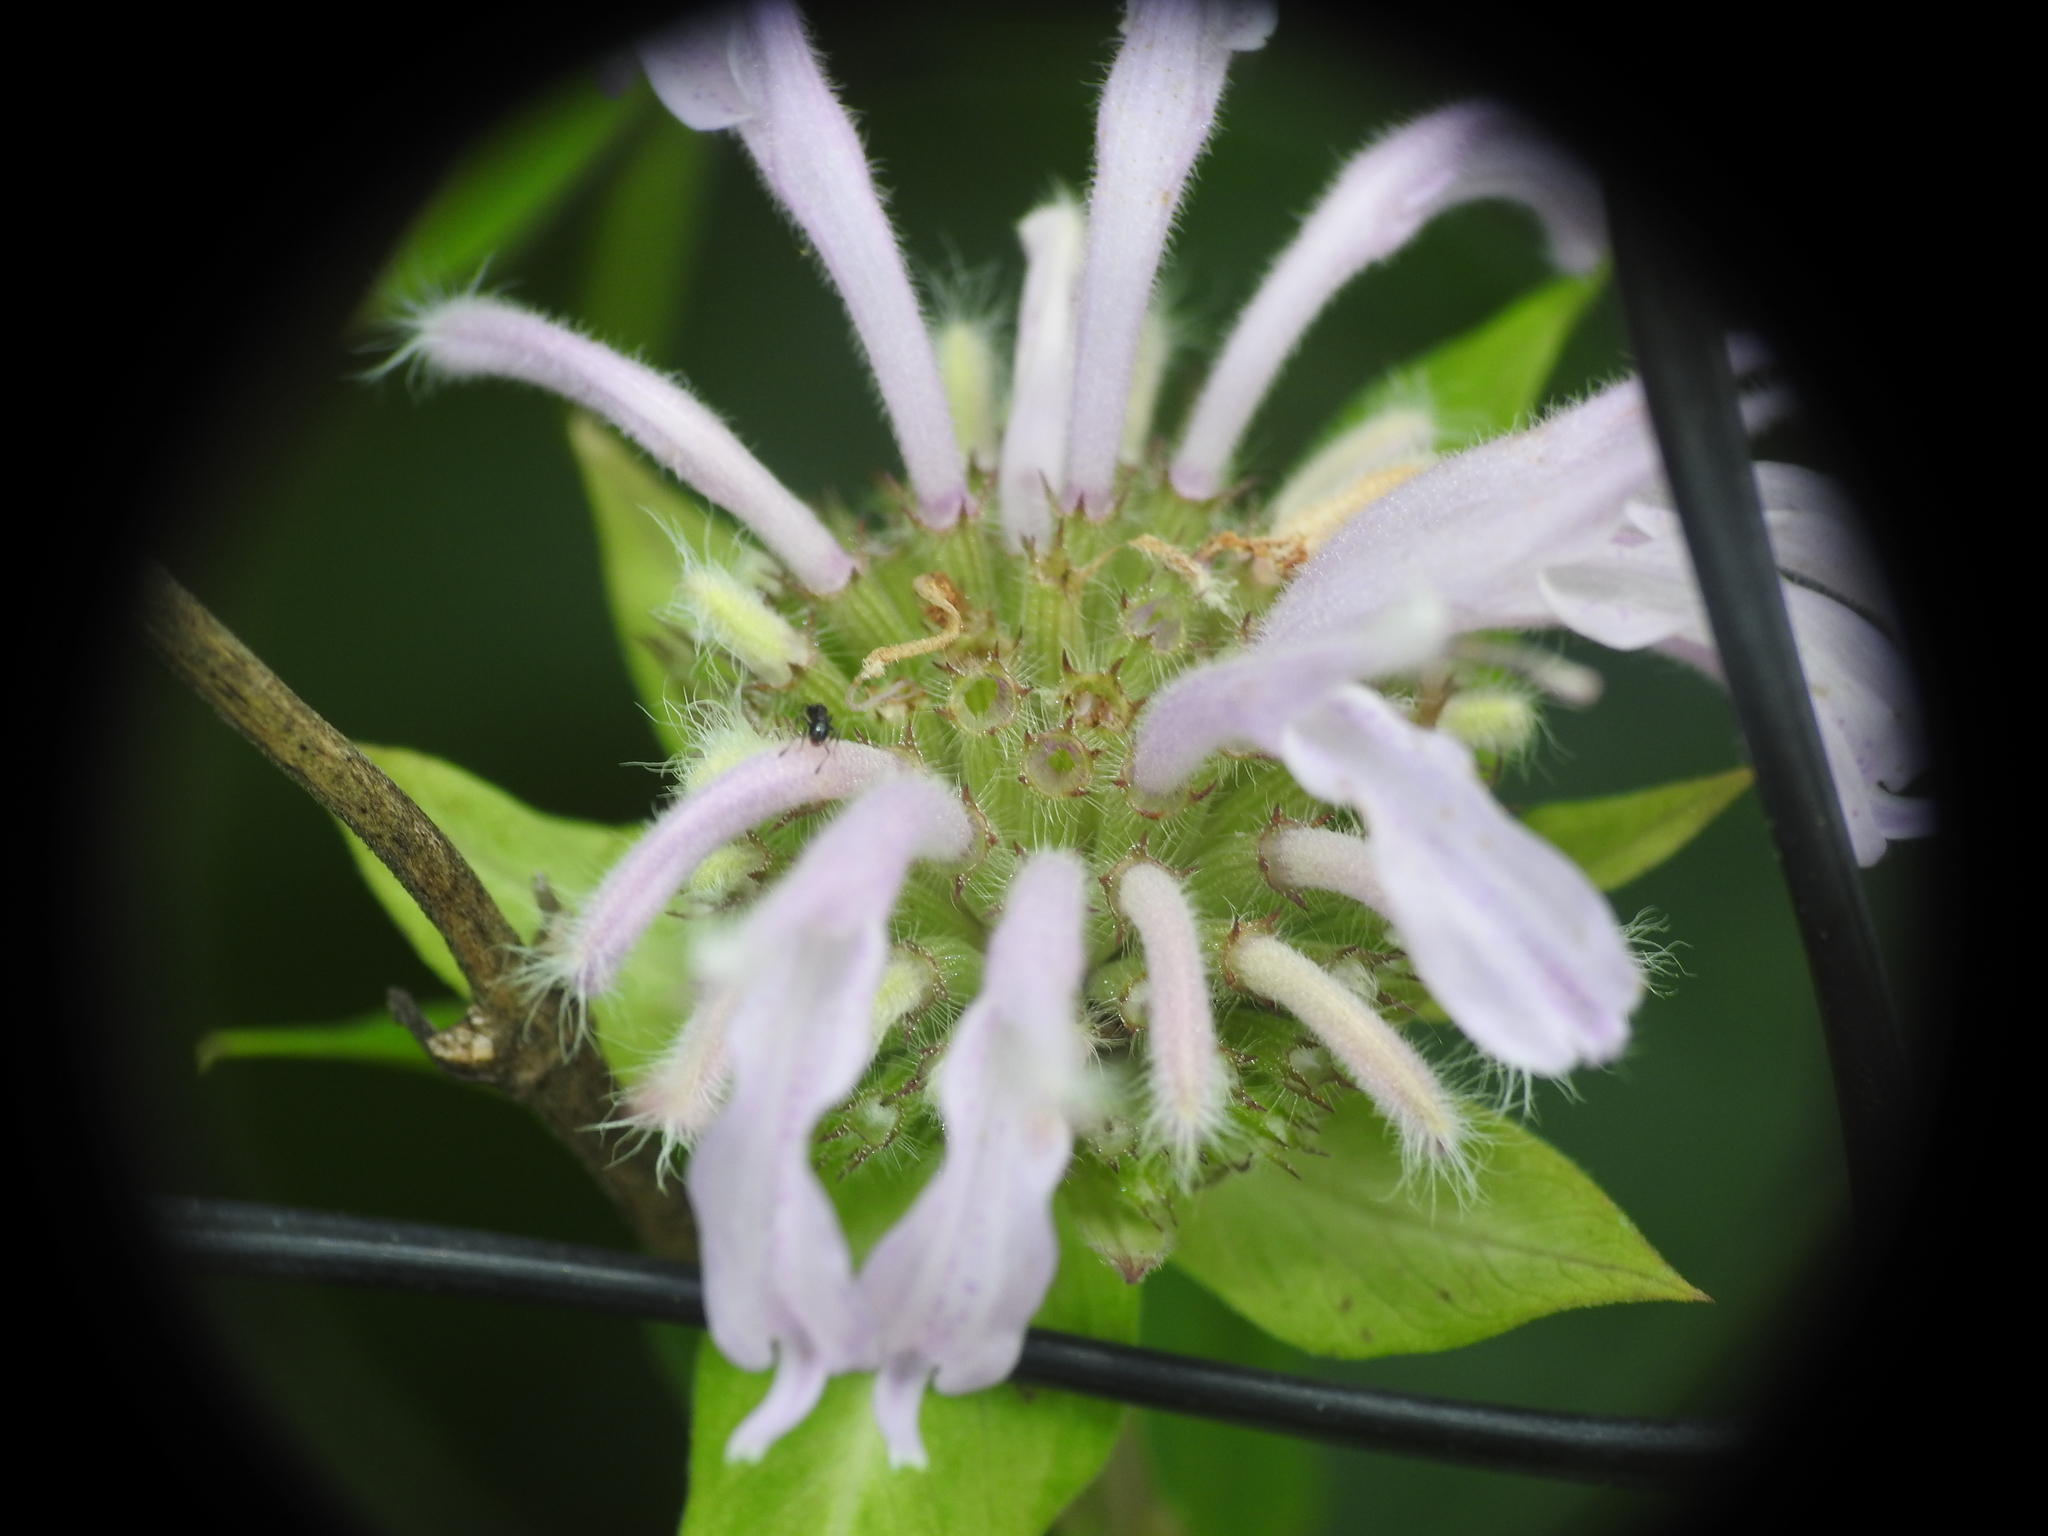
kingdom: Plantae
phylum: Tracheophyta
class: Magnoliopsida
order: Lamiales
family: Lamiaceae
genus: Monarda
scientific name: Monarda fistulosa
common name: Purple beebalm
